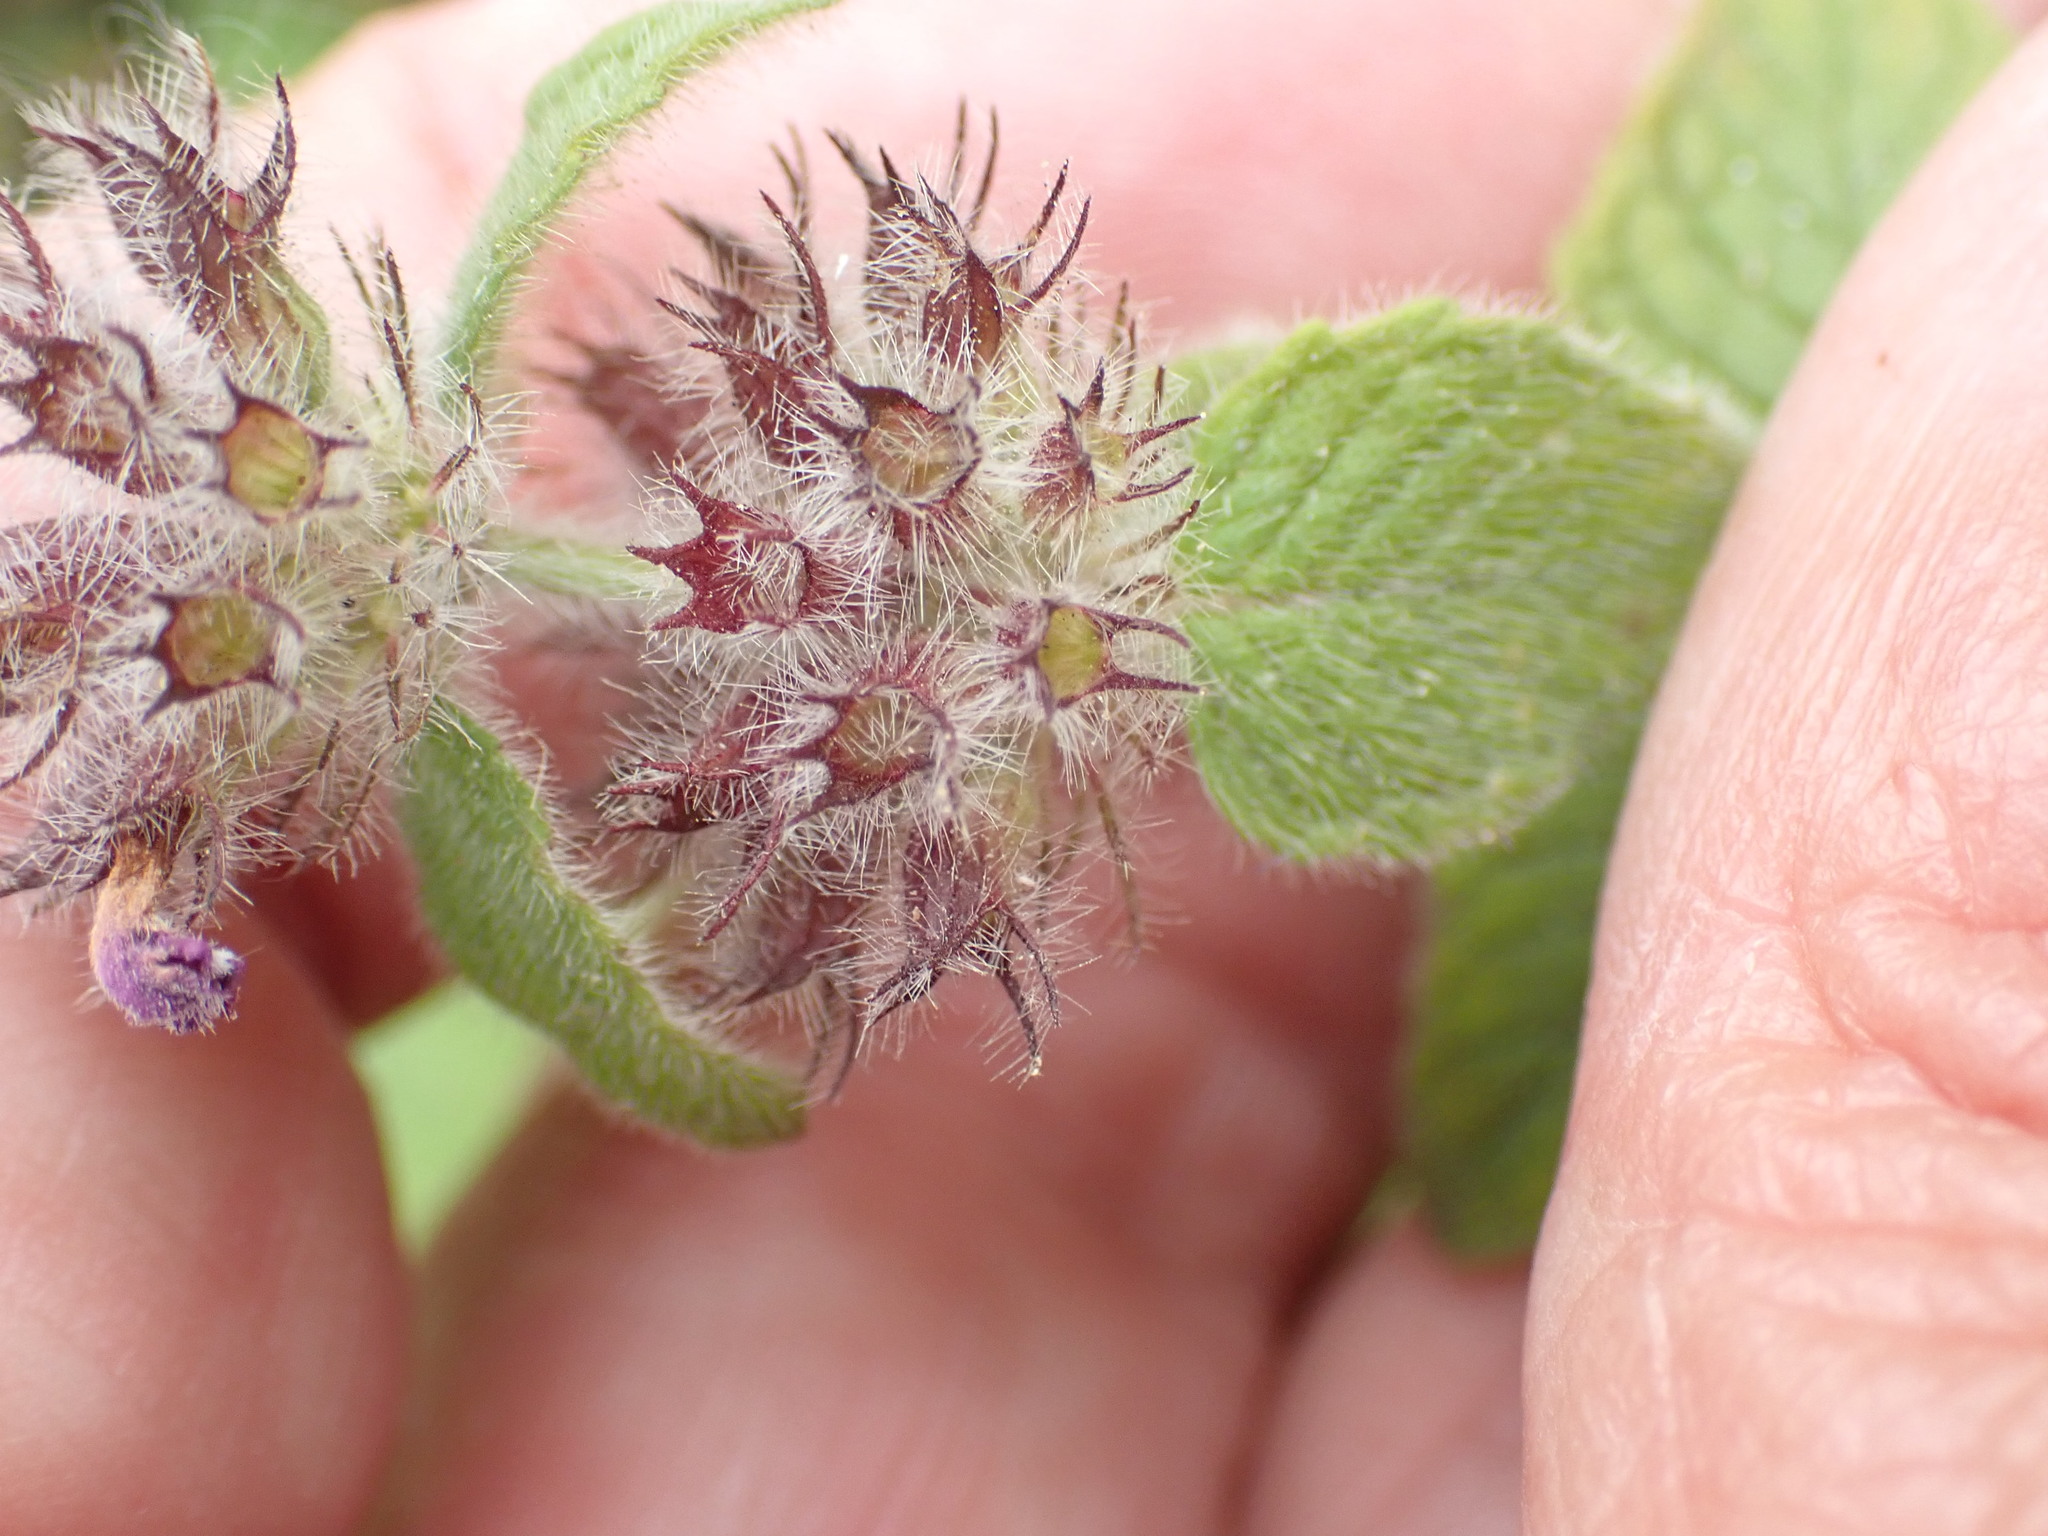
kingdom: Plantae
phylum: Tracheophyta
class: Magnoliopsida
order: Lamiales
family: Lamiaceae
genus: Clinopodium
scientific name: Clinopodium vulgare
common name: Wild basil
